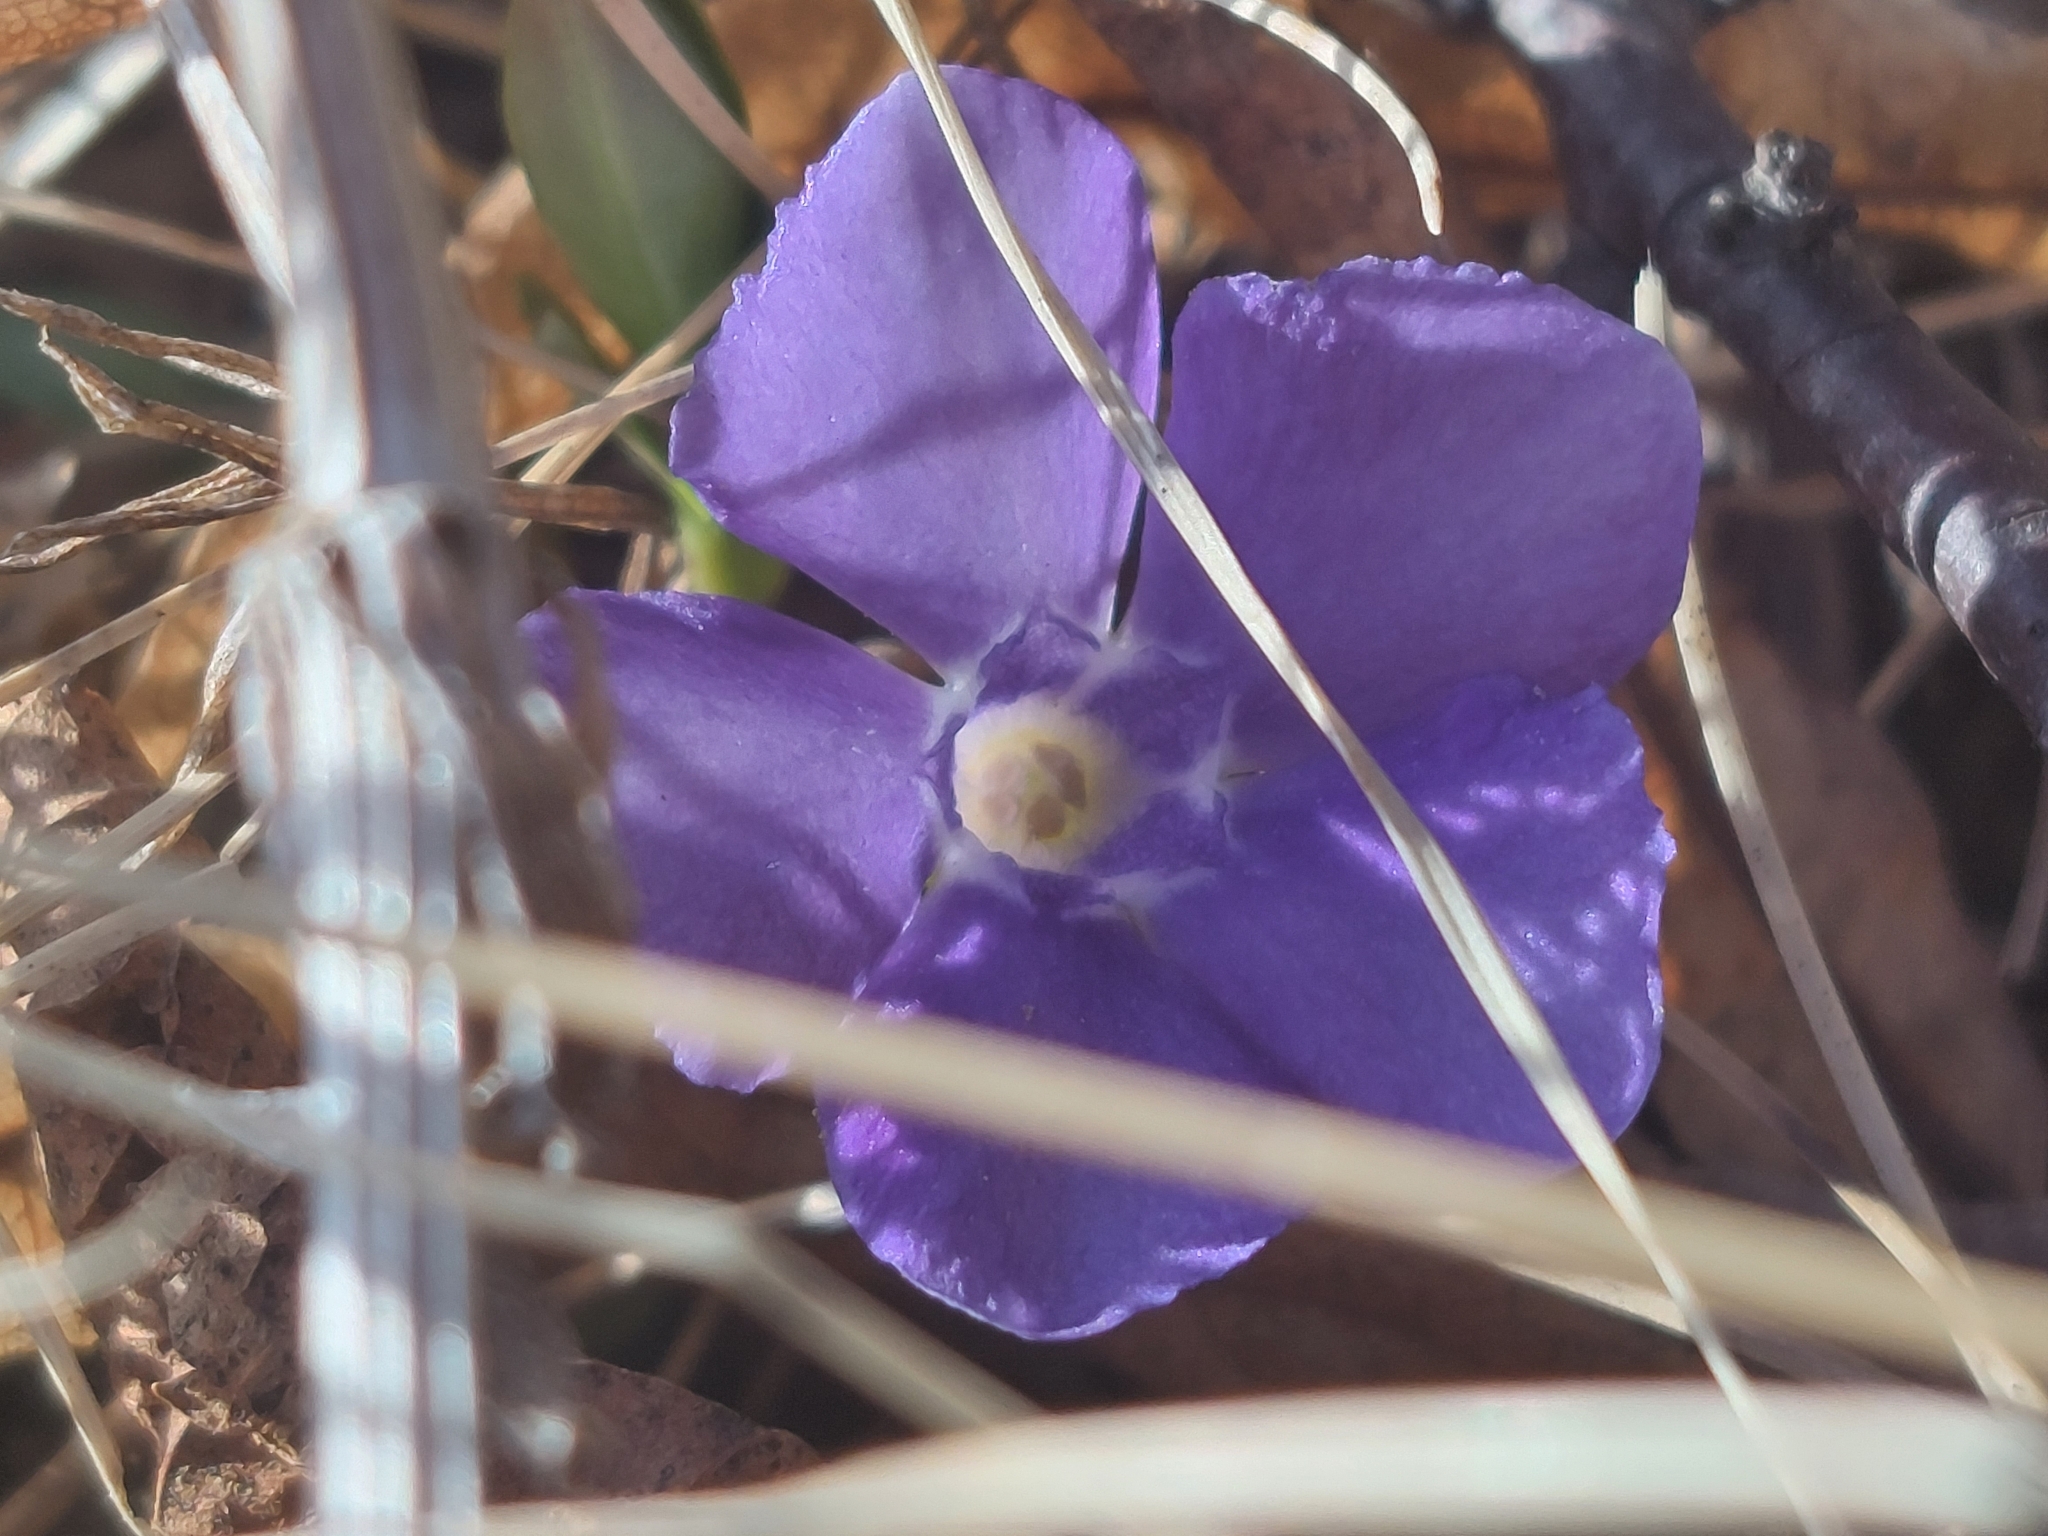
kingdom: Plantae
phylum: Tracheophyta
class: Magnoliopsida
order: Gentianales
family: Apocynaceae
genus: Vinca
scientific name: Vinca minor
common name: Lesser periwinkle
